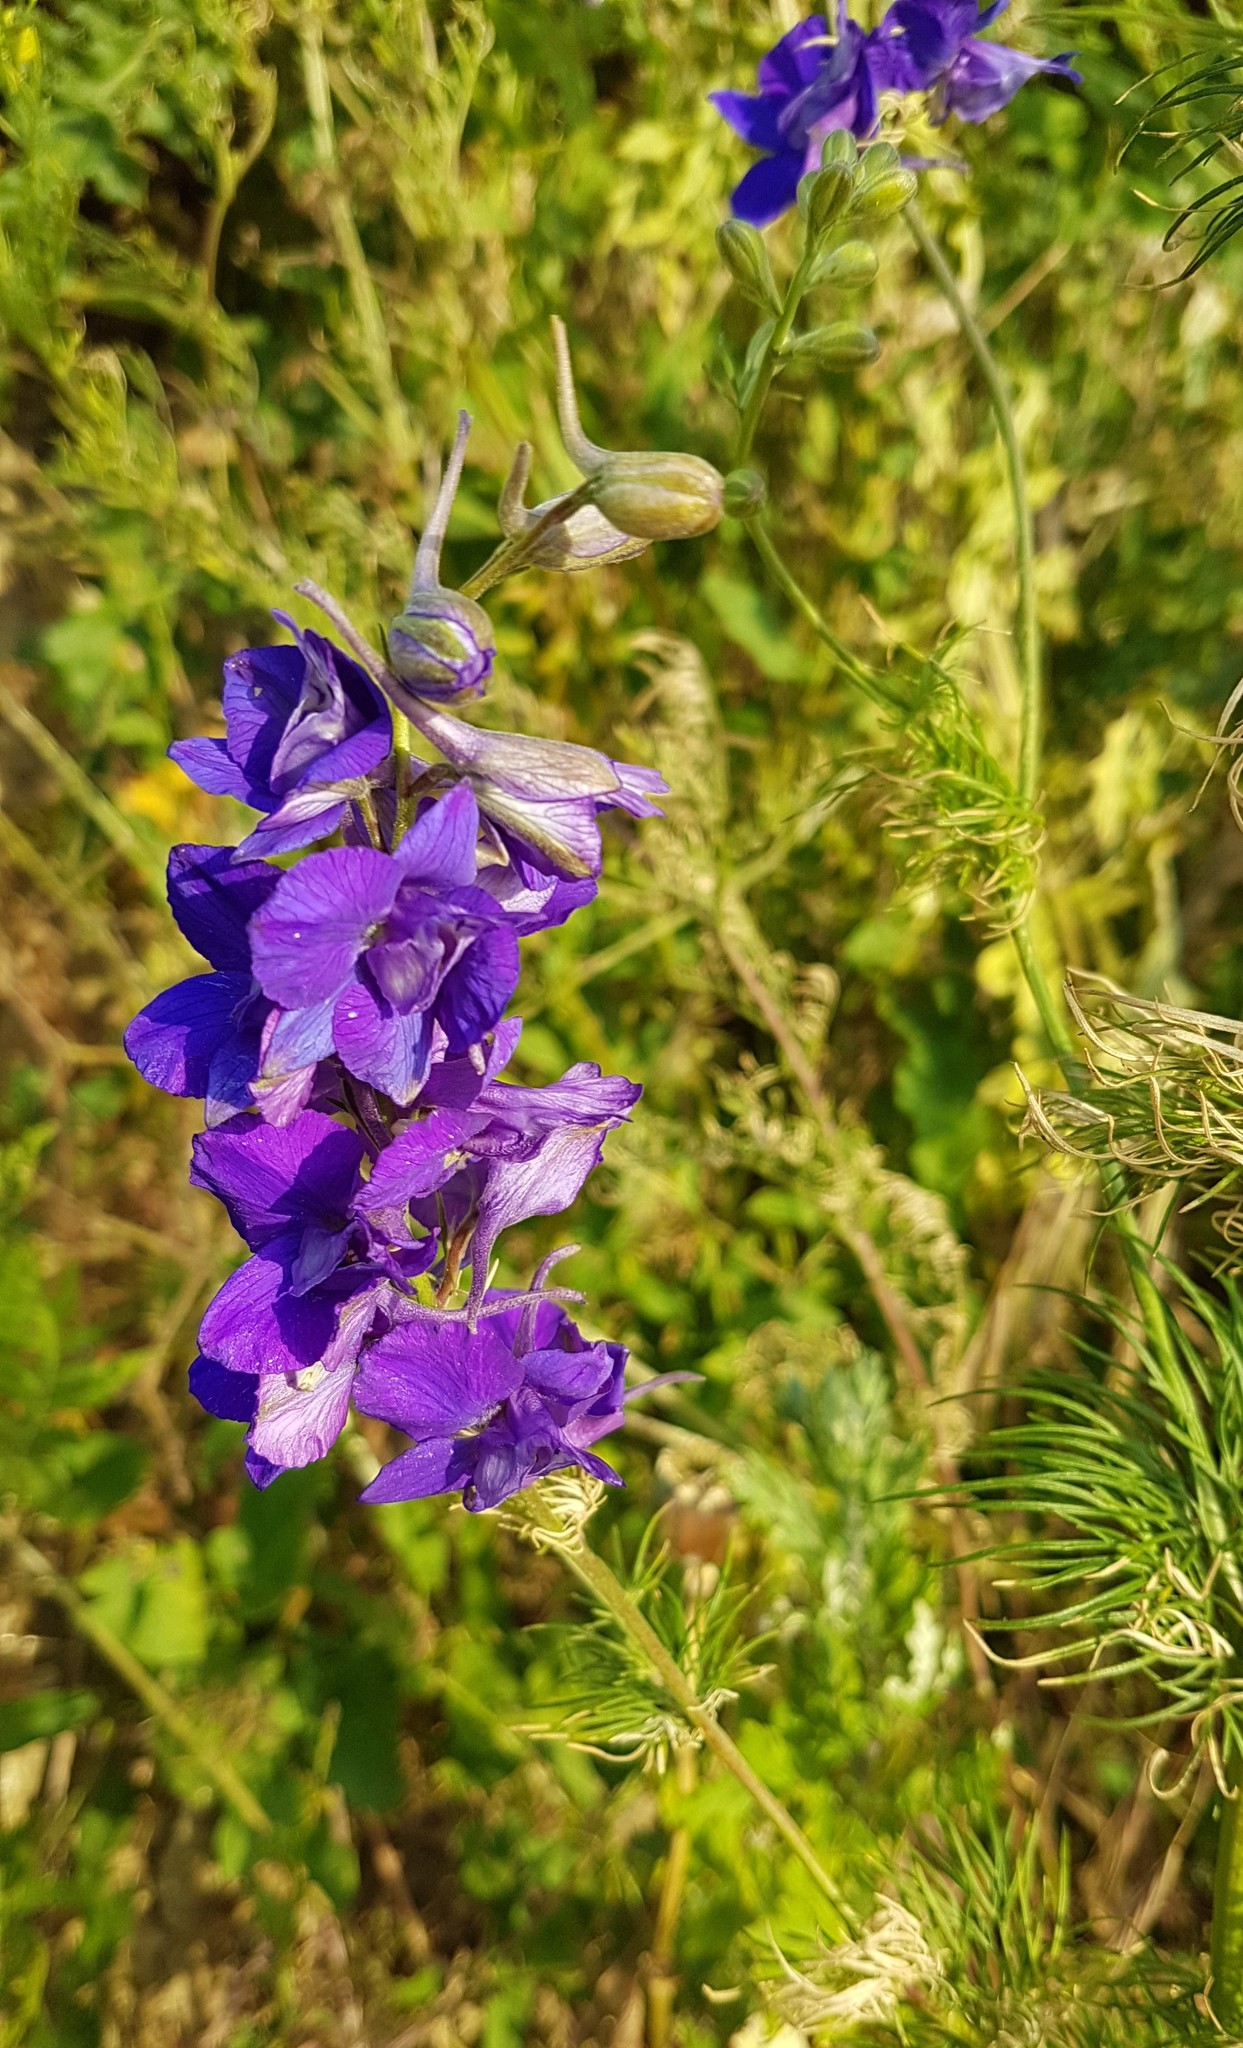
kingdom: Plantae
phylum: Tracheophyta
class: Magnoliopsida
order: Ranunculales
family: Ranunculaceae
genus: Delphinium
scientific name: Delphinium consolida
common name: Branching larkspur
